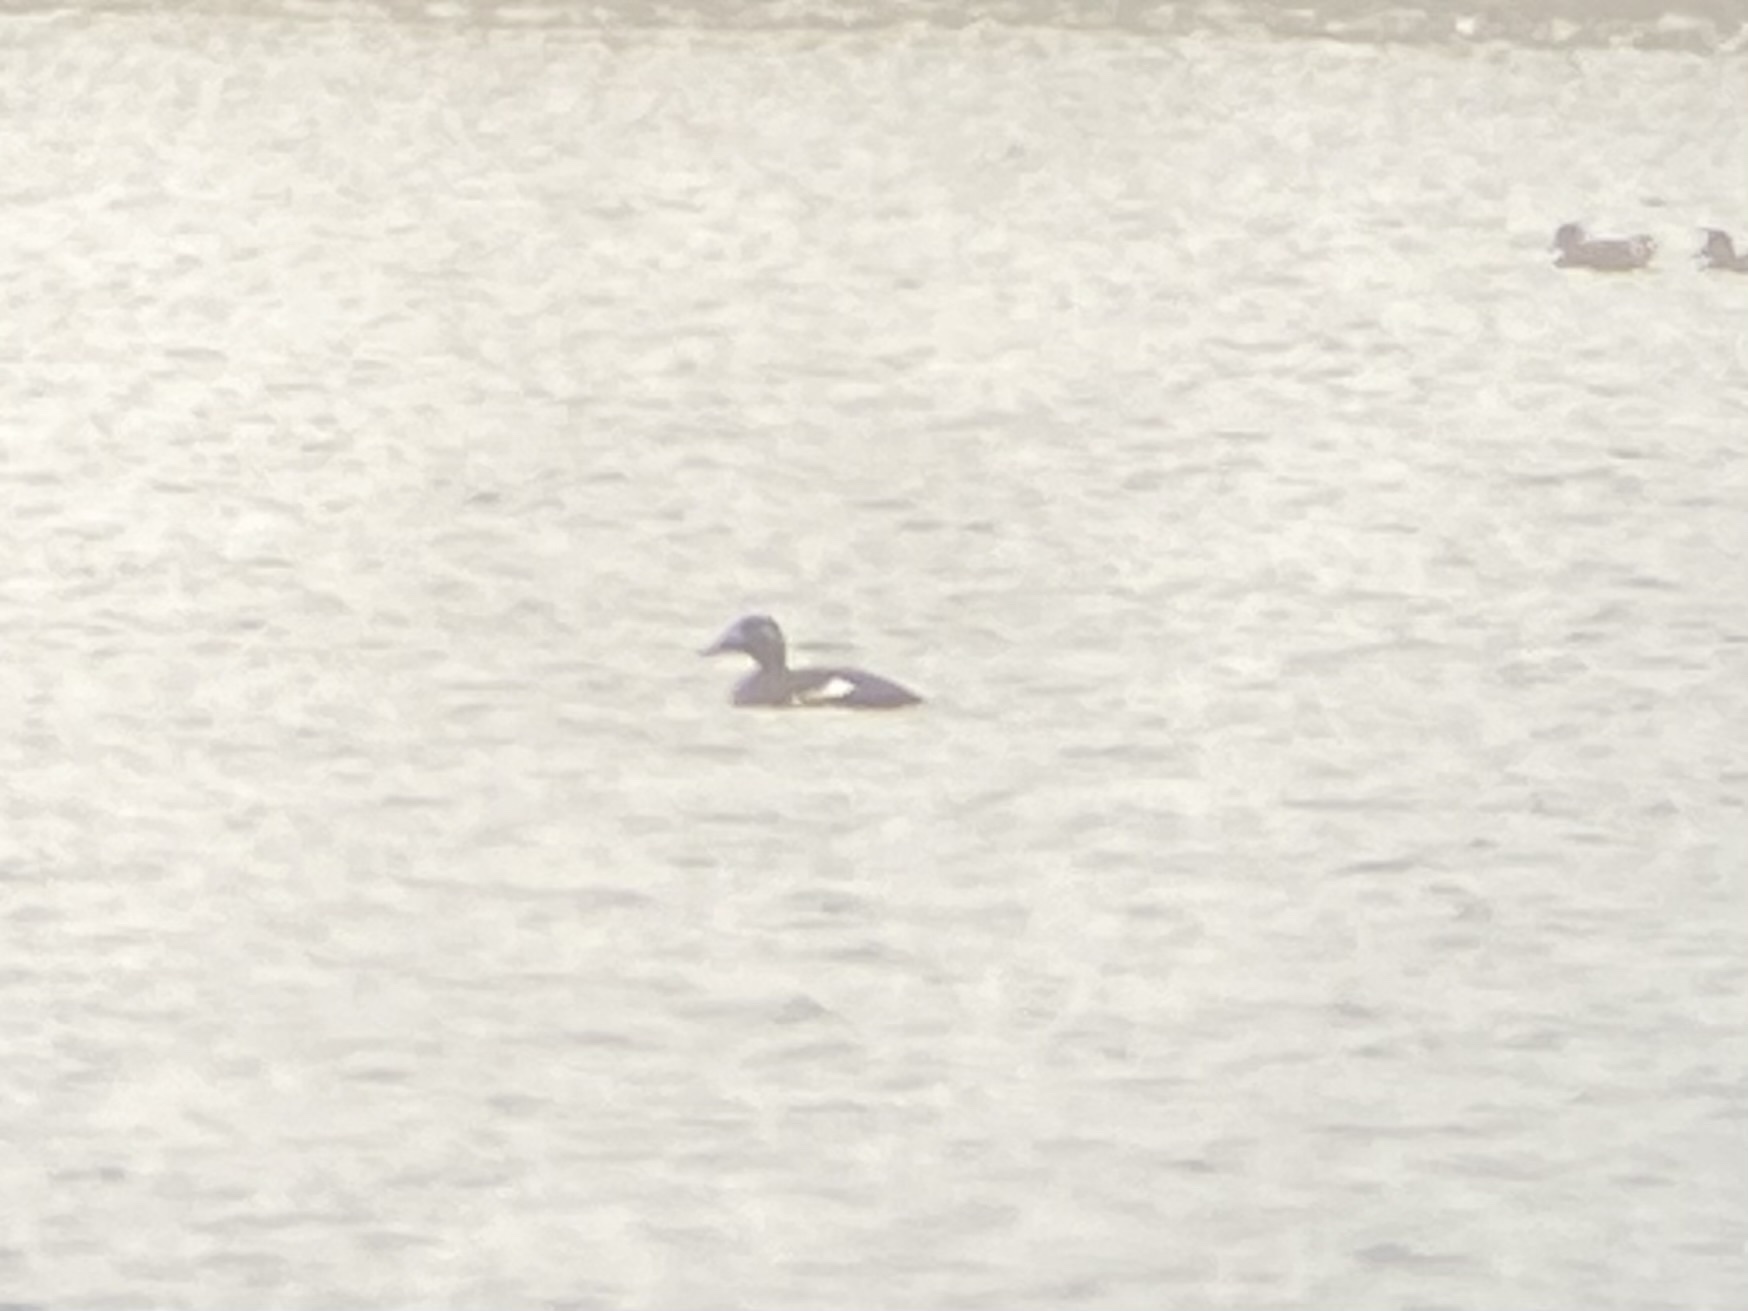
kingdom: Animalia
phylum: Chordata
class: Aves
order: Anseriformes
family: Anatidae
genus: Melanitta
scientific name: Melanitta deglandi
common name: White-winged scoter
